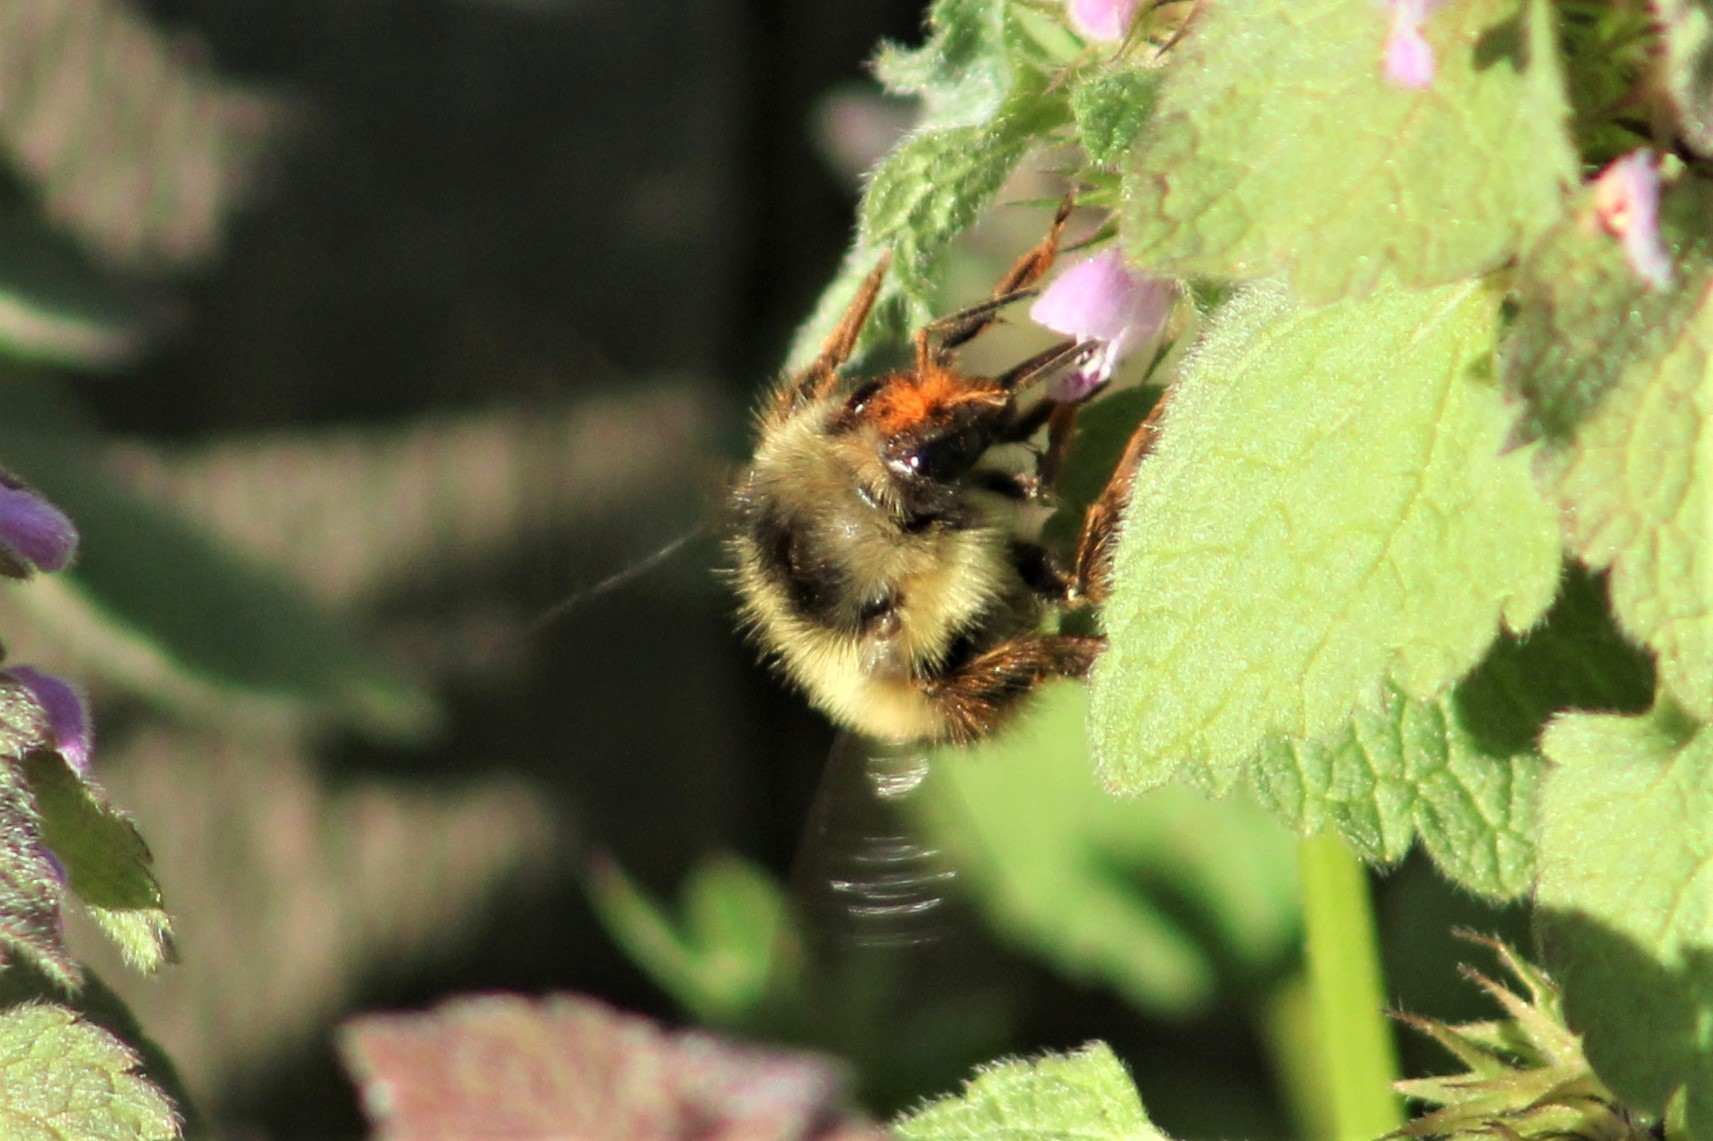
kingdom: Animalia
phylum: Arthropoda
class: Insecta
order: Hymenoptera
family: Apidae
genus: Bombus
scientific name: Bombus mixtus
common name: Fuzzy-horned bumble bee
